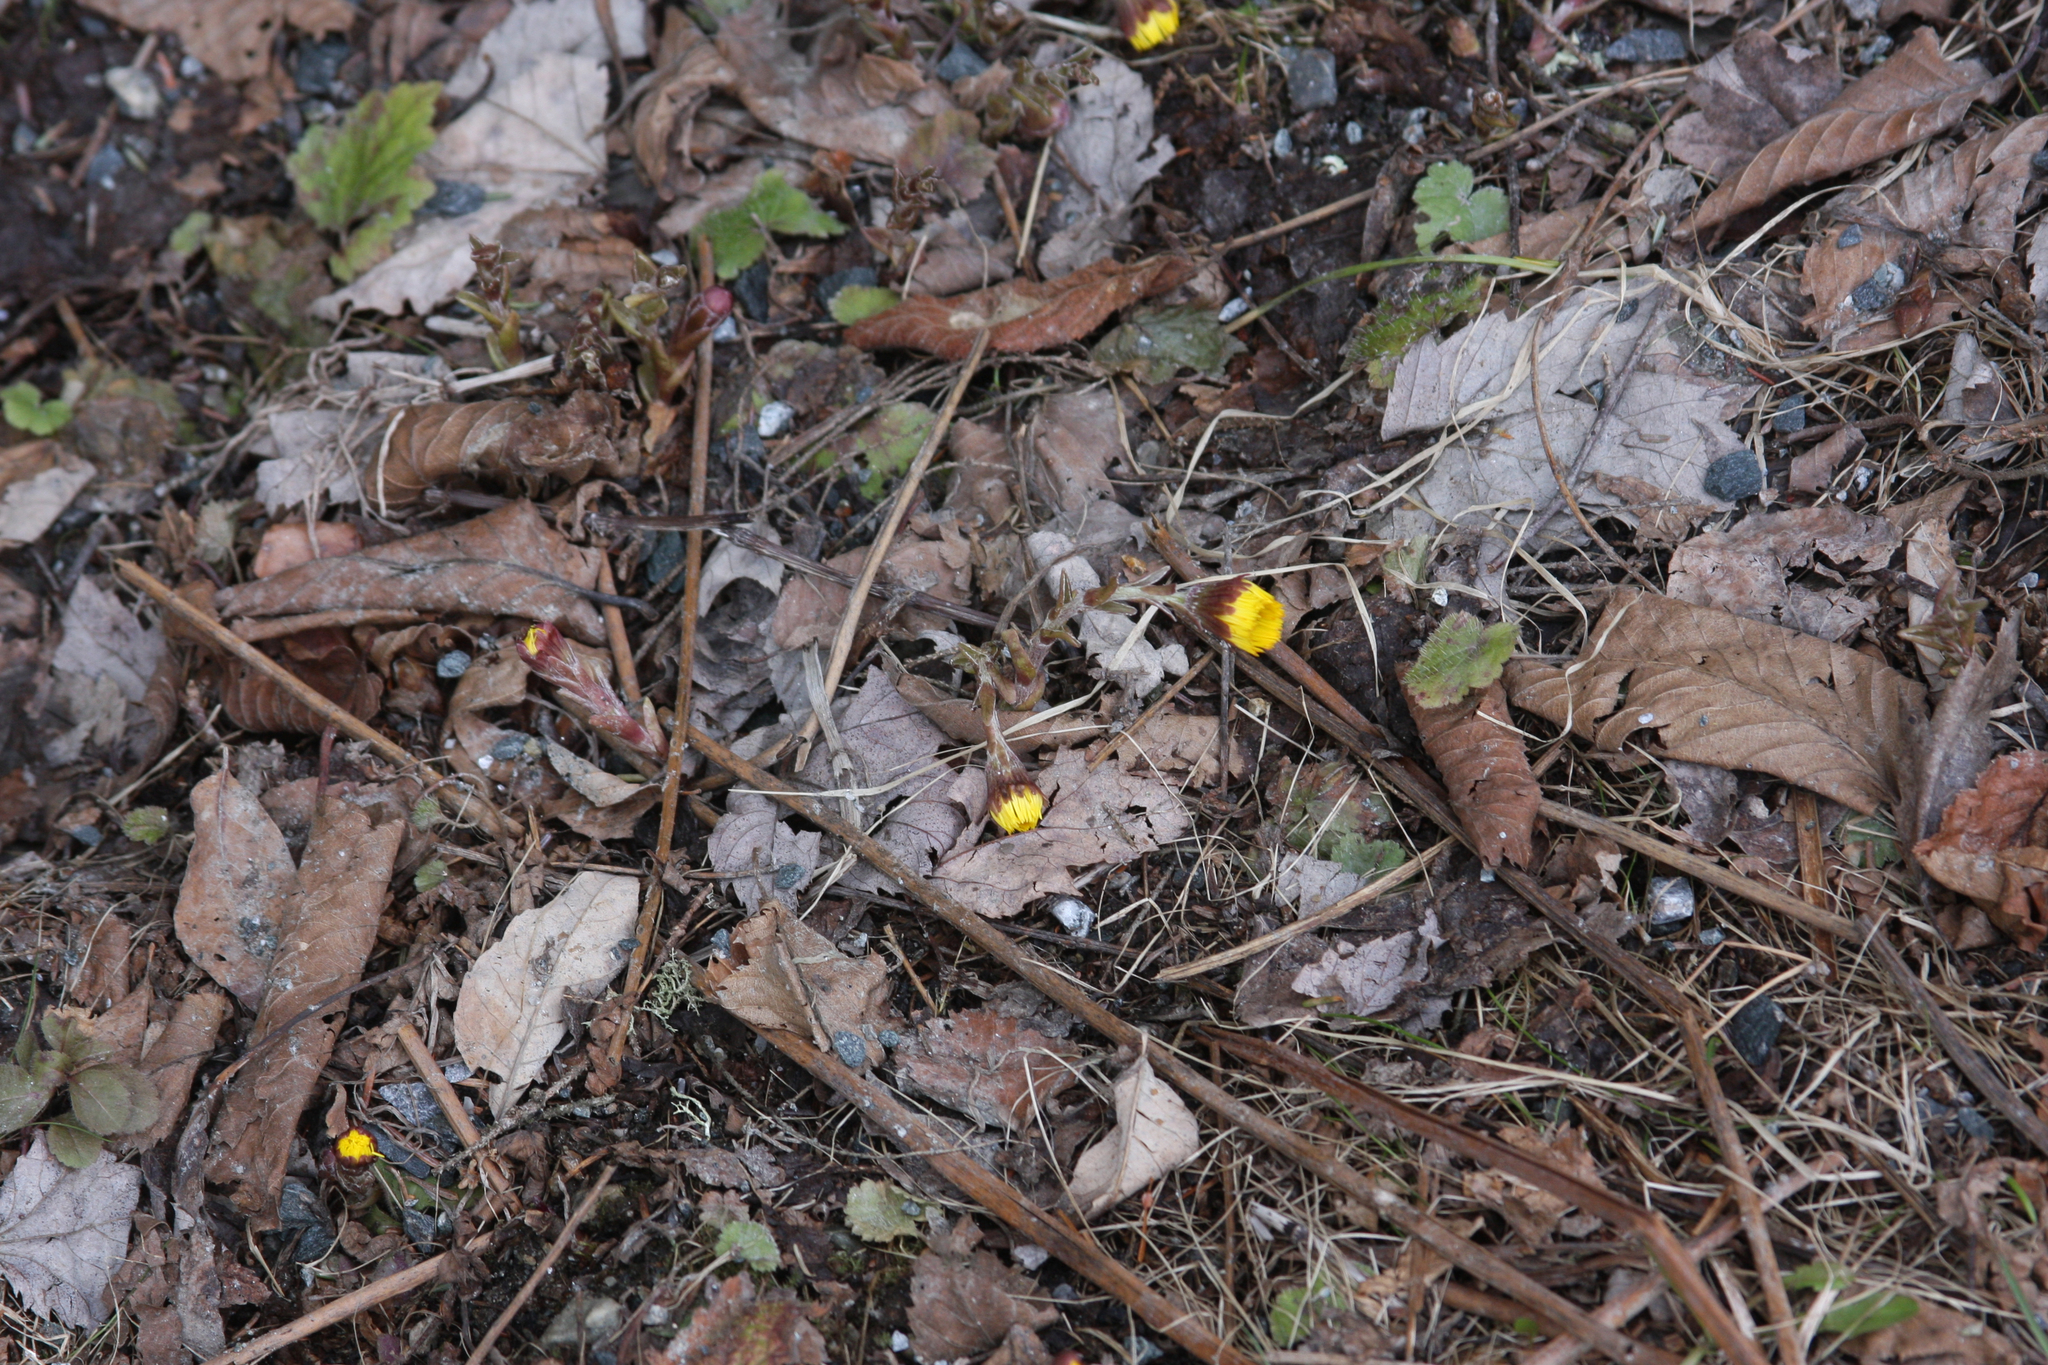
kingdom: Plantae
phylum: Tracheophyta
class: Magnoliopsida
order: Asterales
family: Asteraceae
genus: Tussilago
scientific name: Tussilago farfara
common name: Coltsfoot
